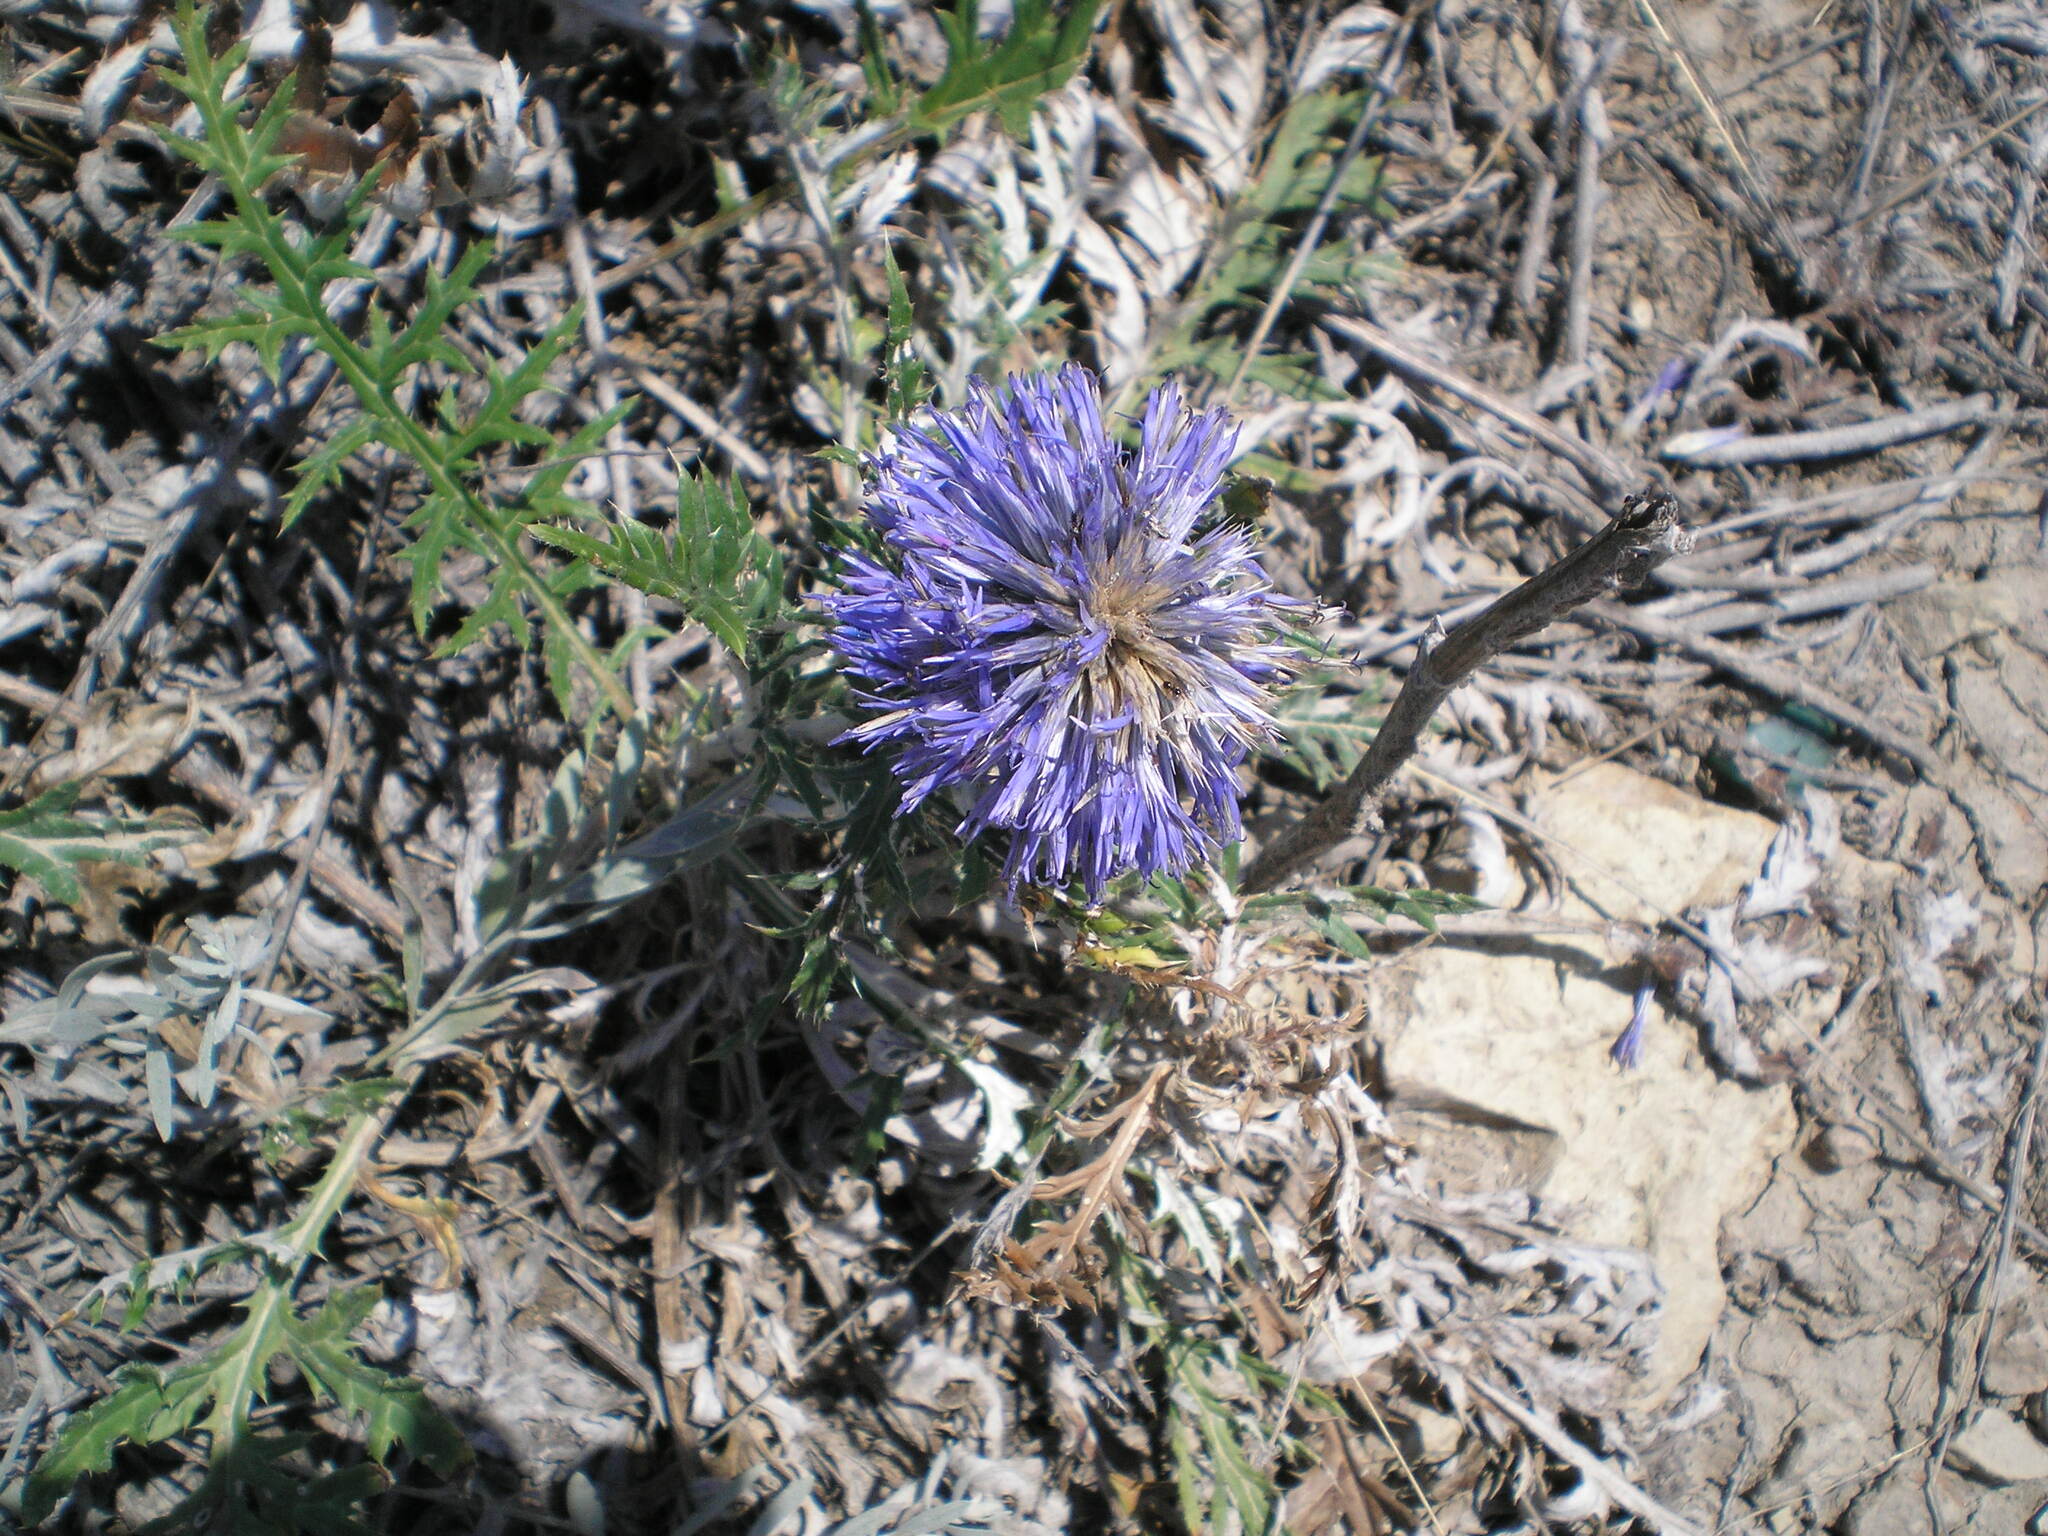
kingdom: Plantae
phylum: Tracheophyta
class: Magnoliopsida
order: Asterales
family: Asteraceae
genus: Echinops
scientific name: Echinops ritro
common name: Globe thistle
